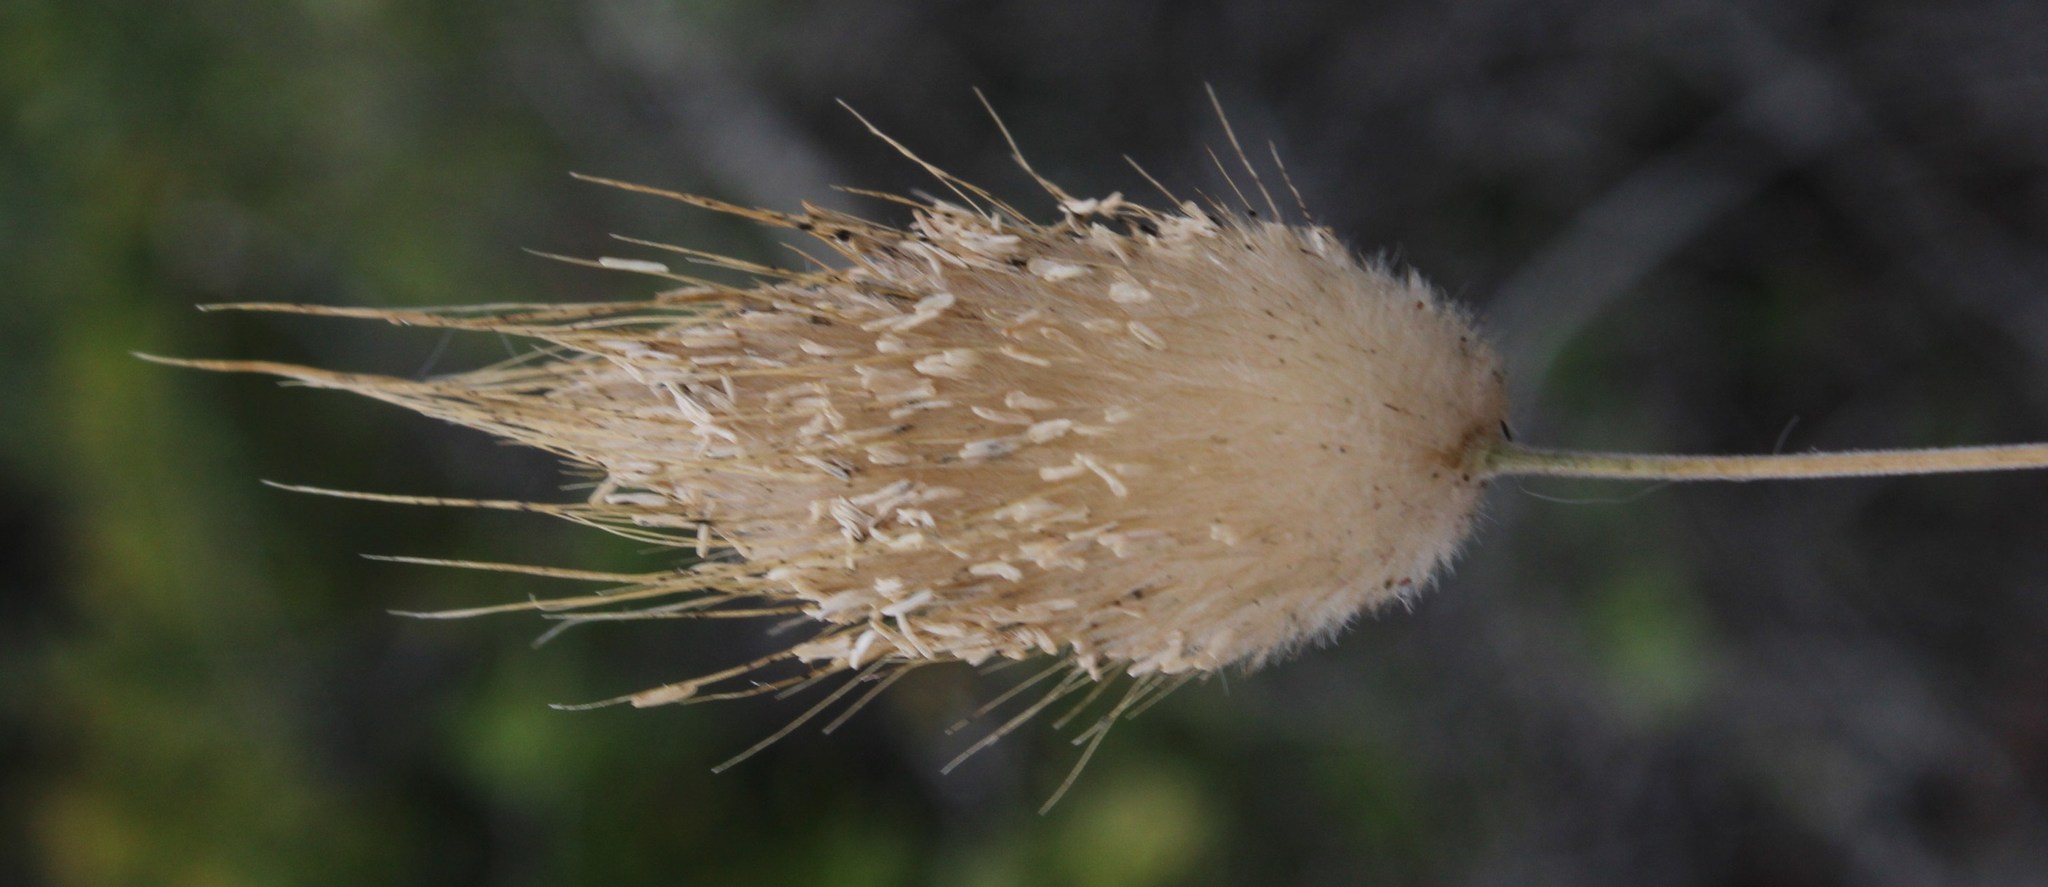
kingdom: Plantae
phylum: Tracheophyta
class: Liliopsida
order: Poales
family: Poaceae
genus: Lagurus
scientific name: Lagurus ovatus
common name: Hare's-tail
